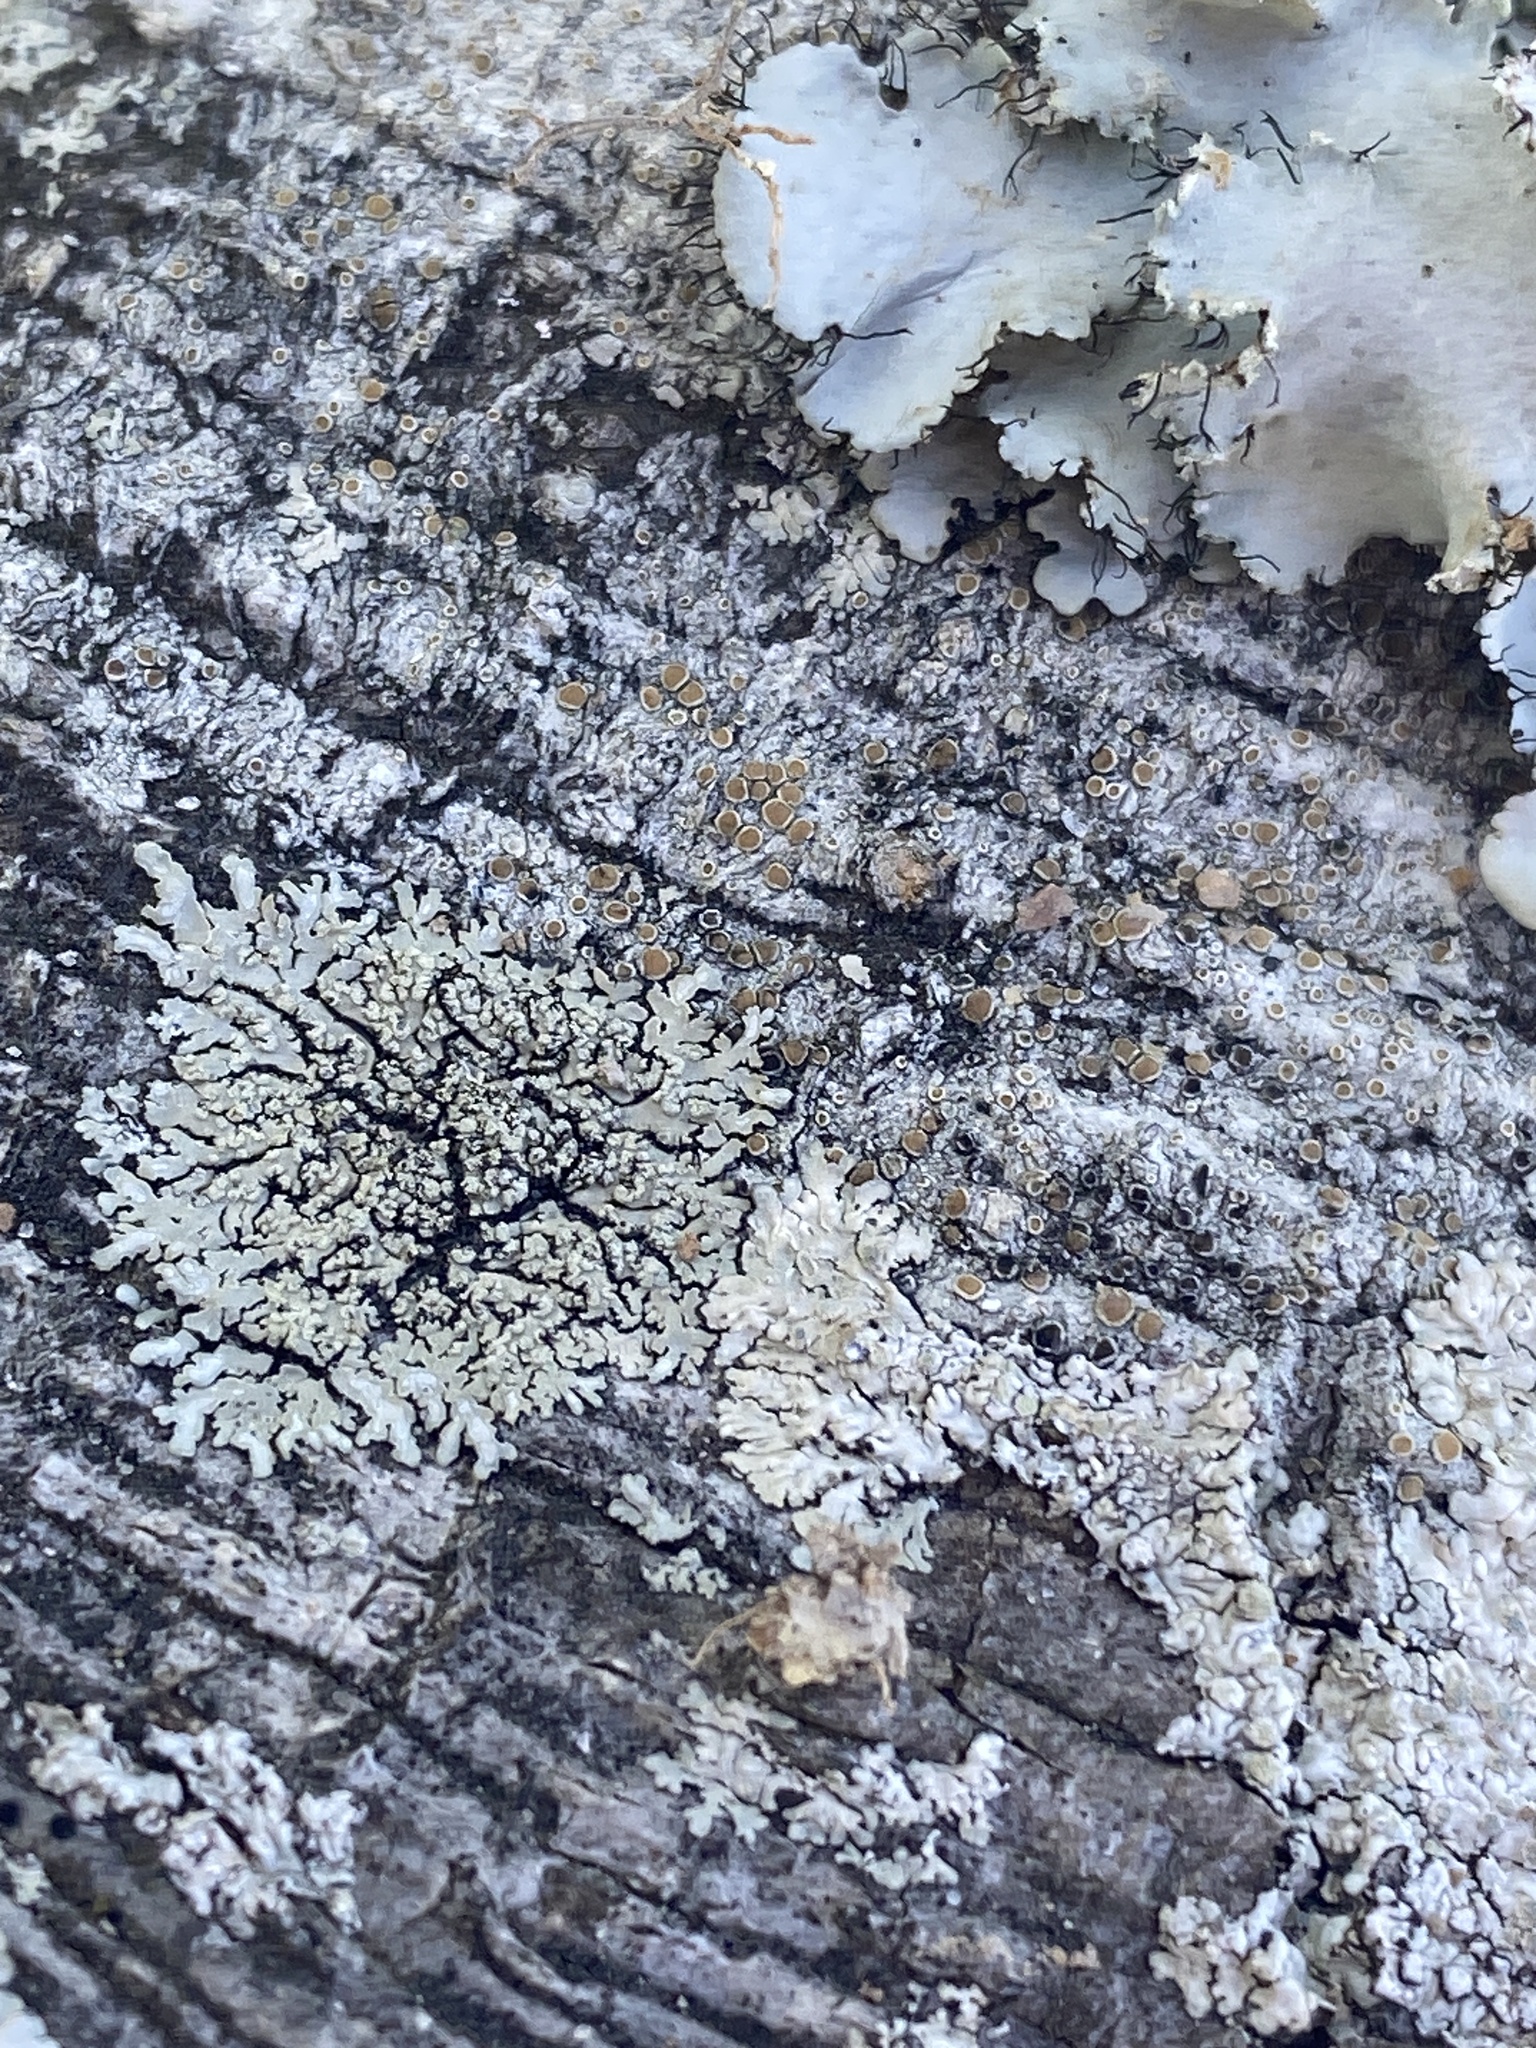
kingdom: Fungi
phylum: Ascomycota
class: Lecanoromycetes
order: Caliciales
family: Caliciaceae
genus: Pyxine
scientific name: Pyxine subcinerea
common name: Mustard lichen
